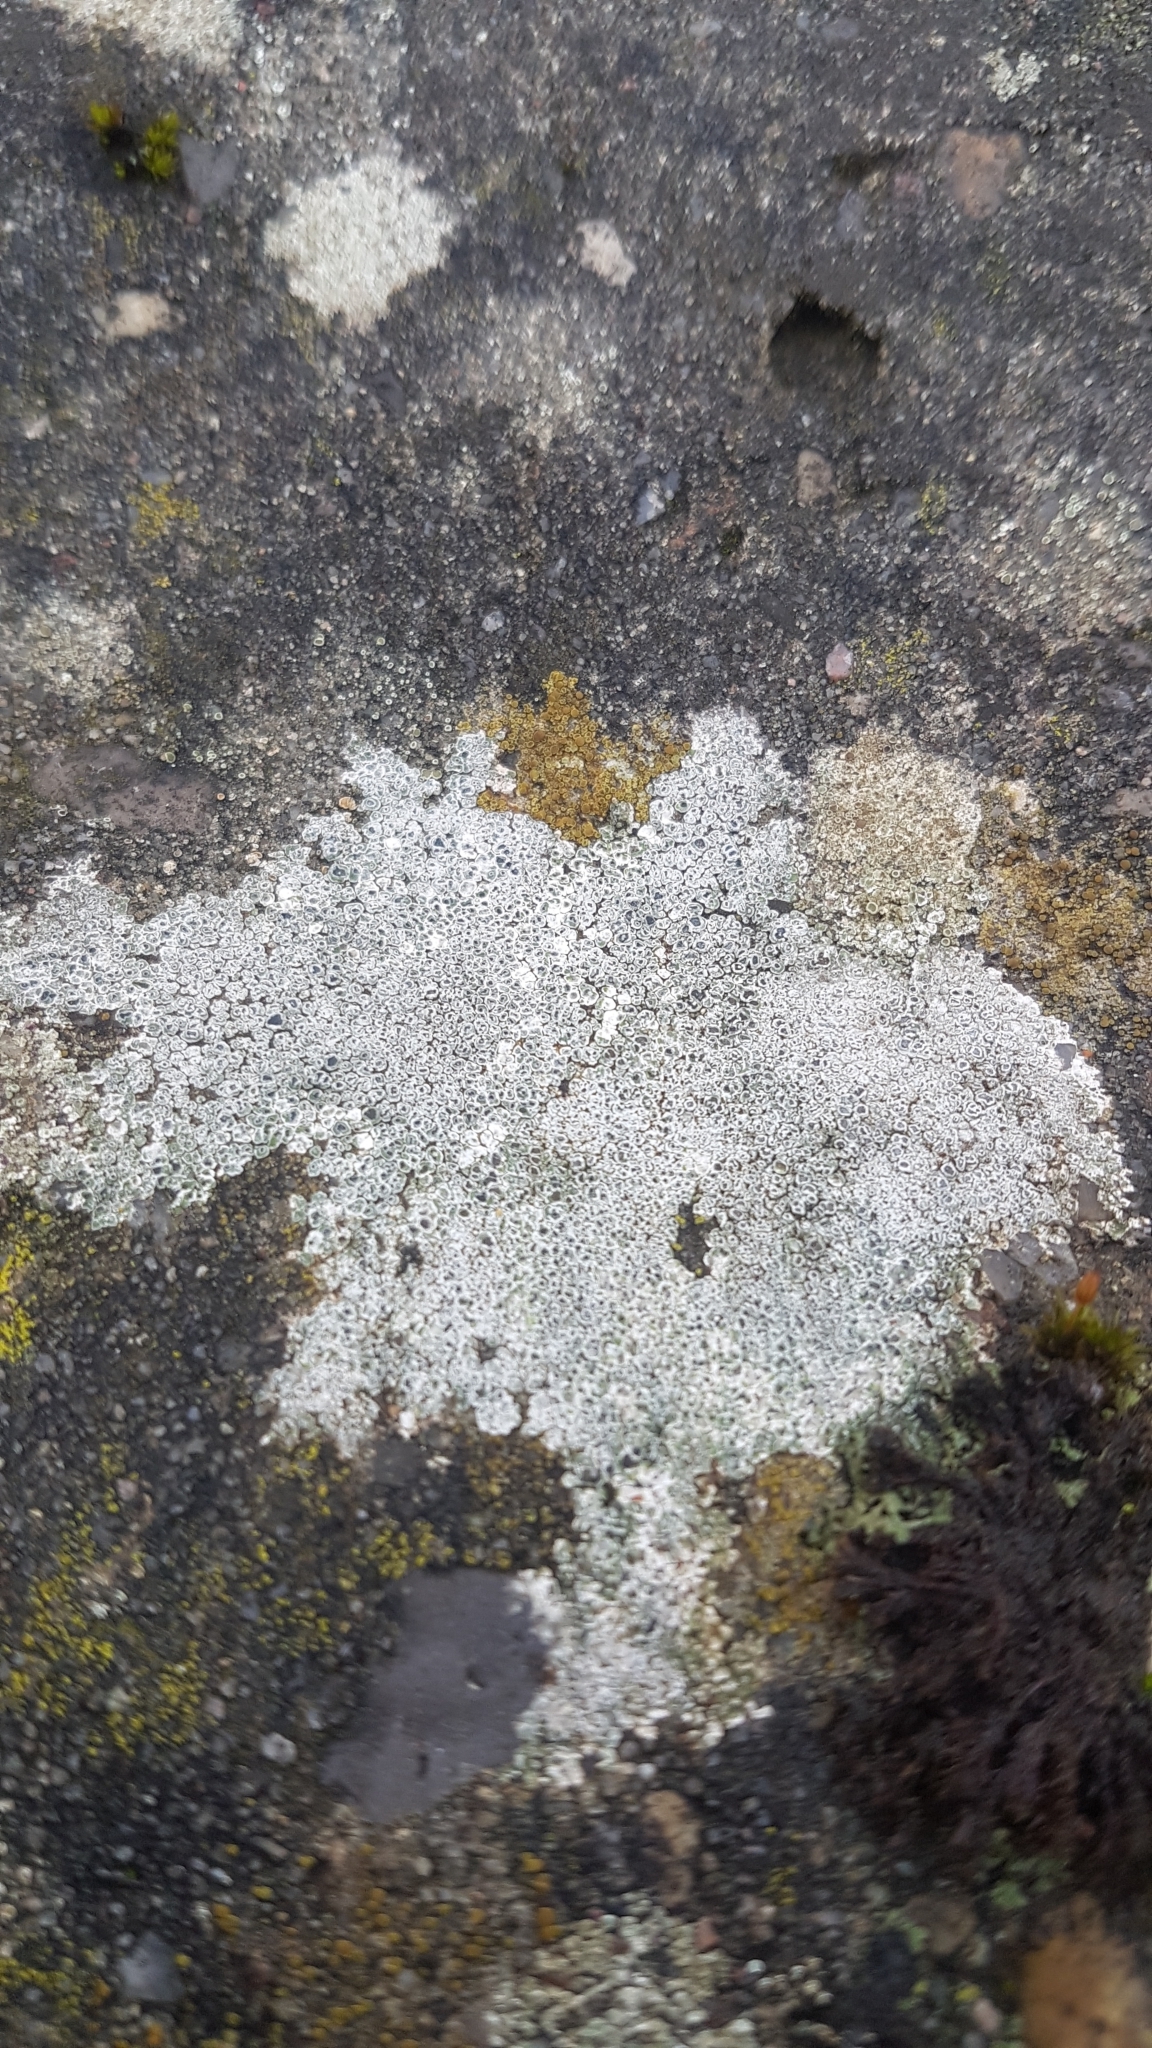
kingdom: Fungi
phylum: Ascomycota
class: Lecanoromycetes
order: Pertusariales
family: Megasporaceae
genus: Circinaria
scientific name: Circinaria contorta
